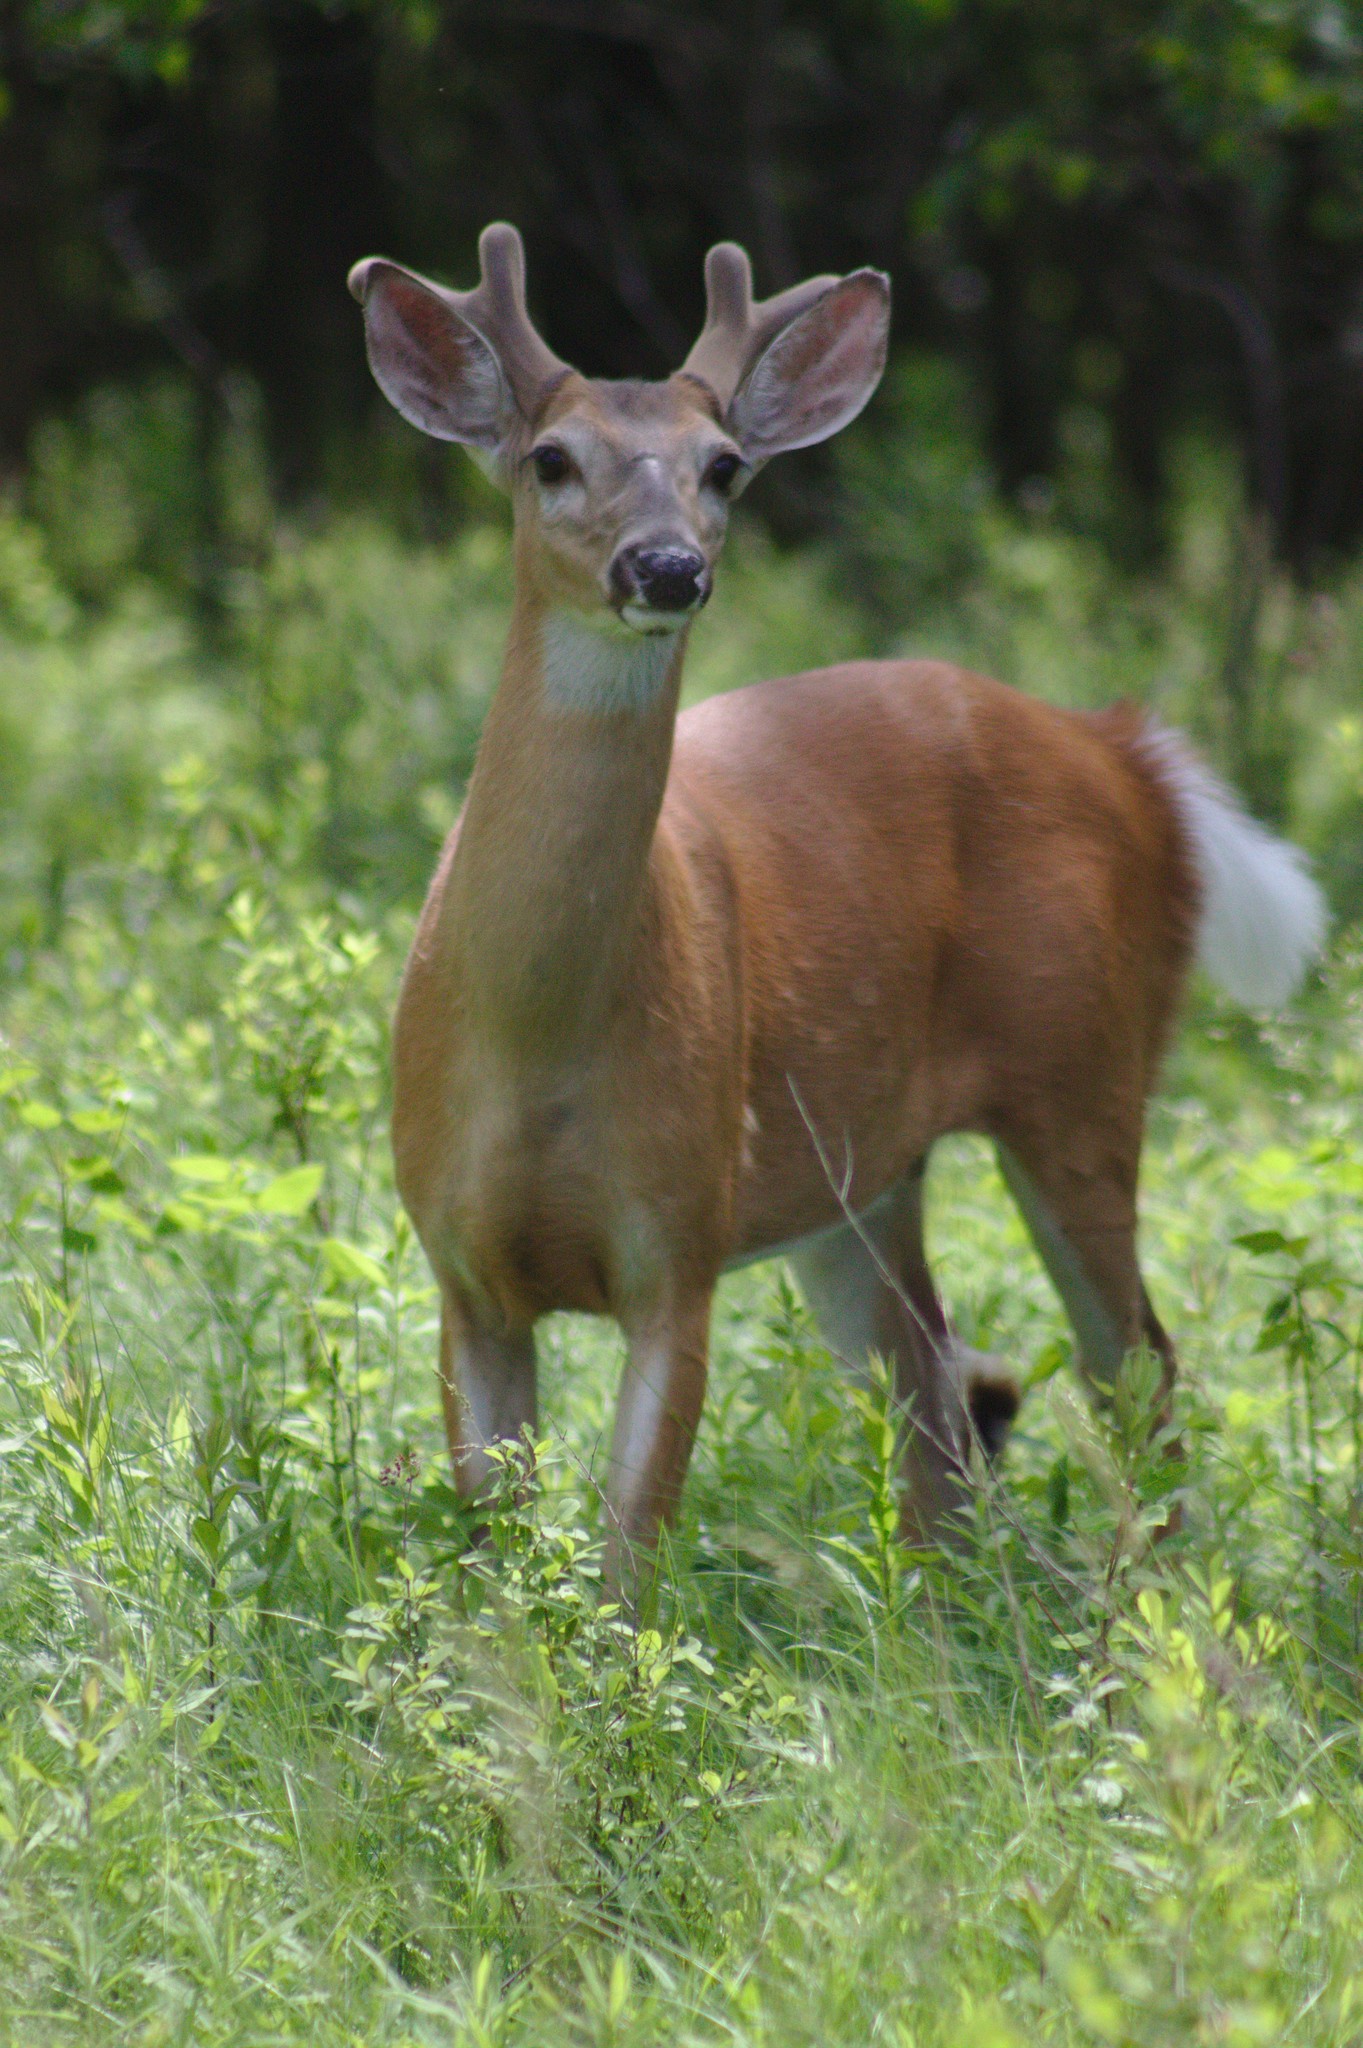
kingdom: Animalia
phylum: Chordata
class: Mammalia
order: Artiodactyla
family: Cervidae
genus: Odocoileus
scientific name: Odocoileus virginianus
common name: White-tailed deer
